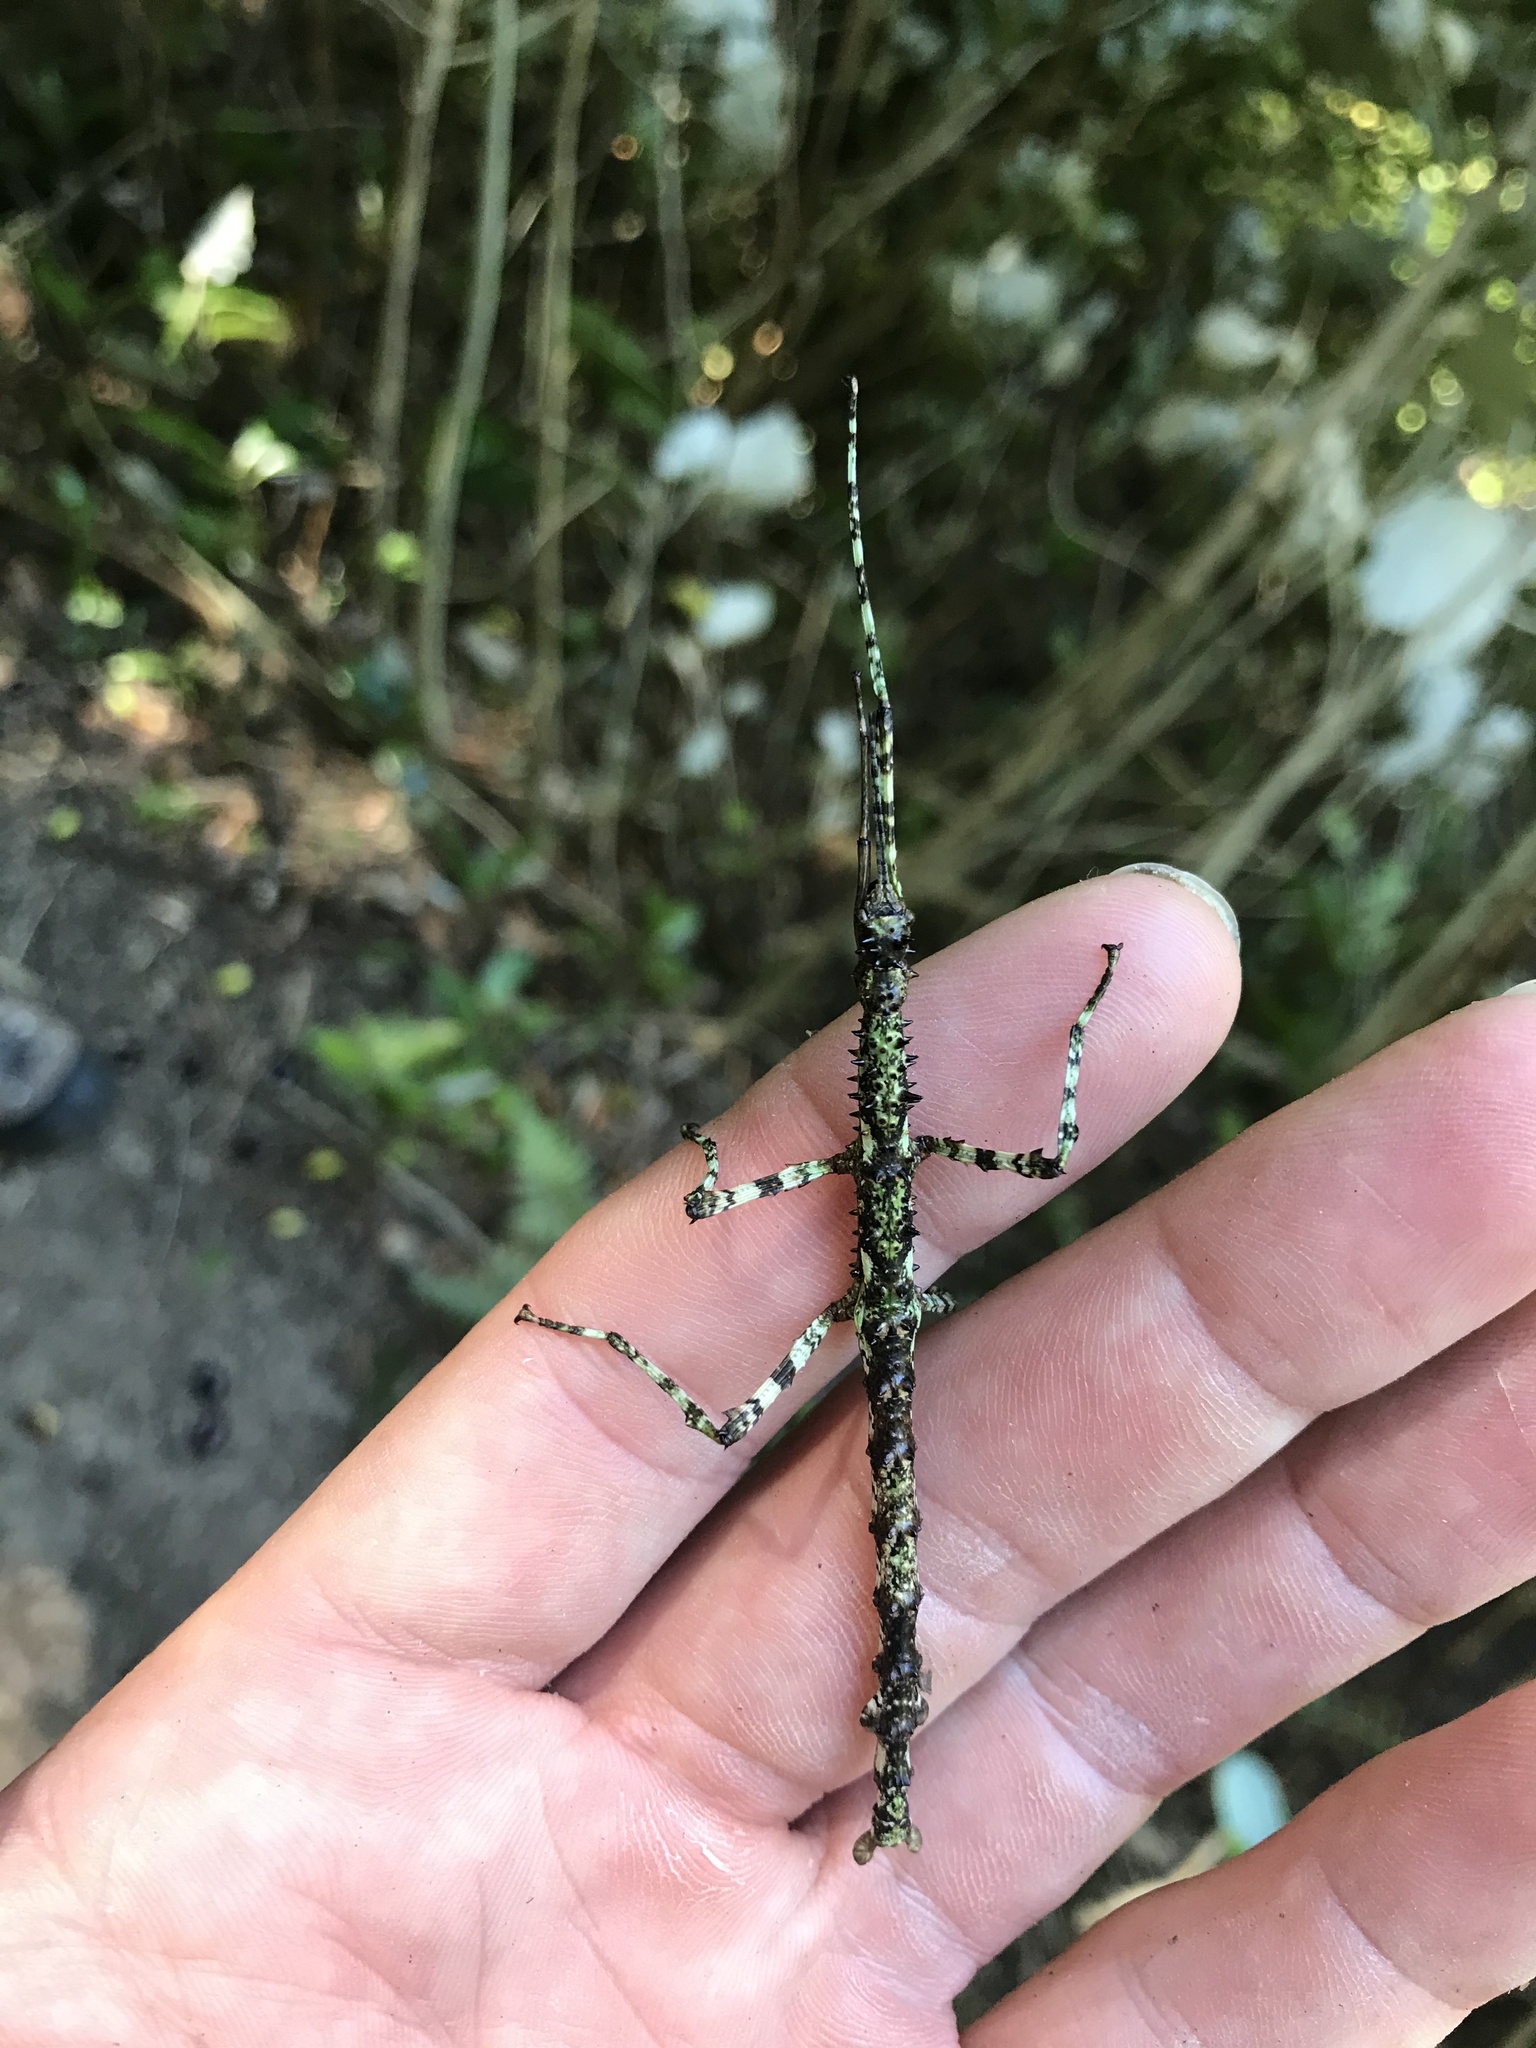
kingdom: Animalia
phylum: Arthropoda
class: Insecta
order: Phasmida
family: Phasmatidae
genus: Acanthoxyla
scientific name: Acanthoxyla prasina
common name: Black-spined stick insect
